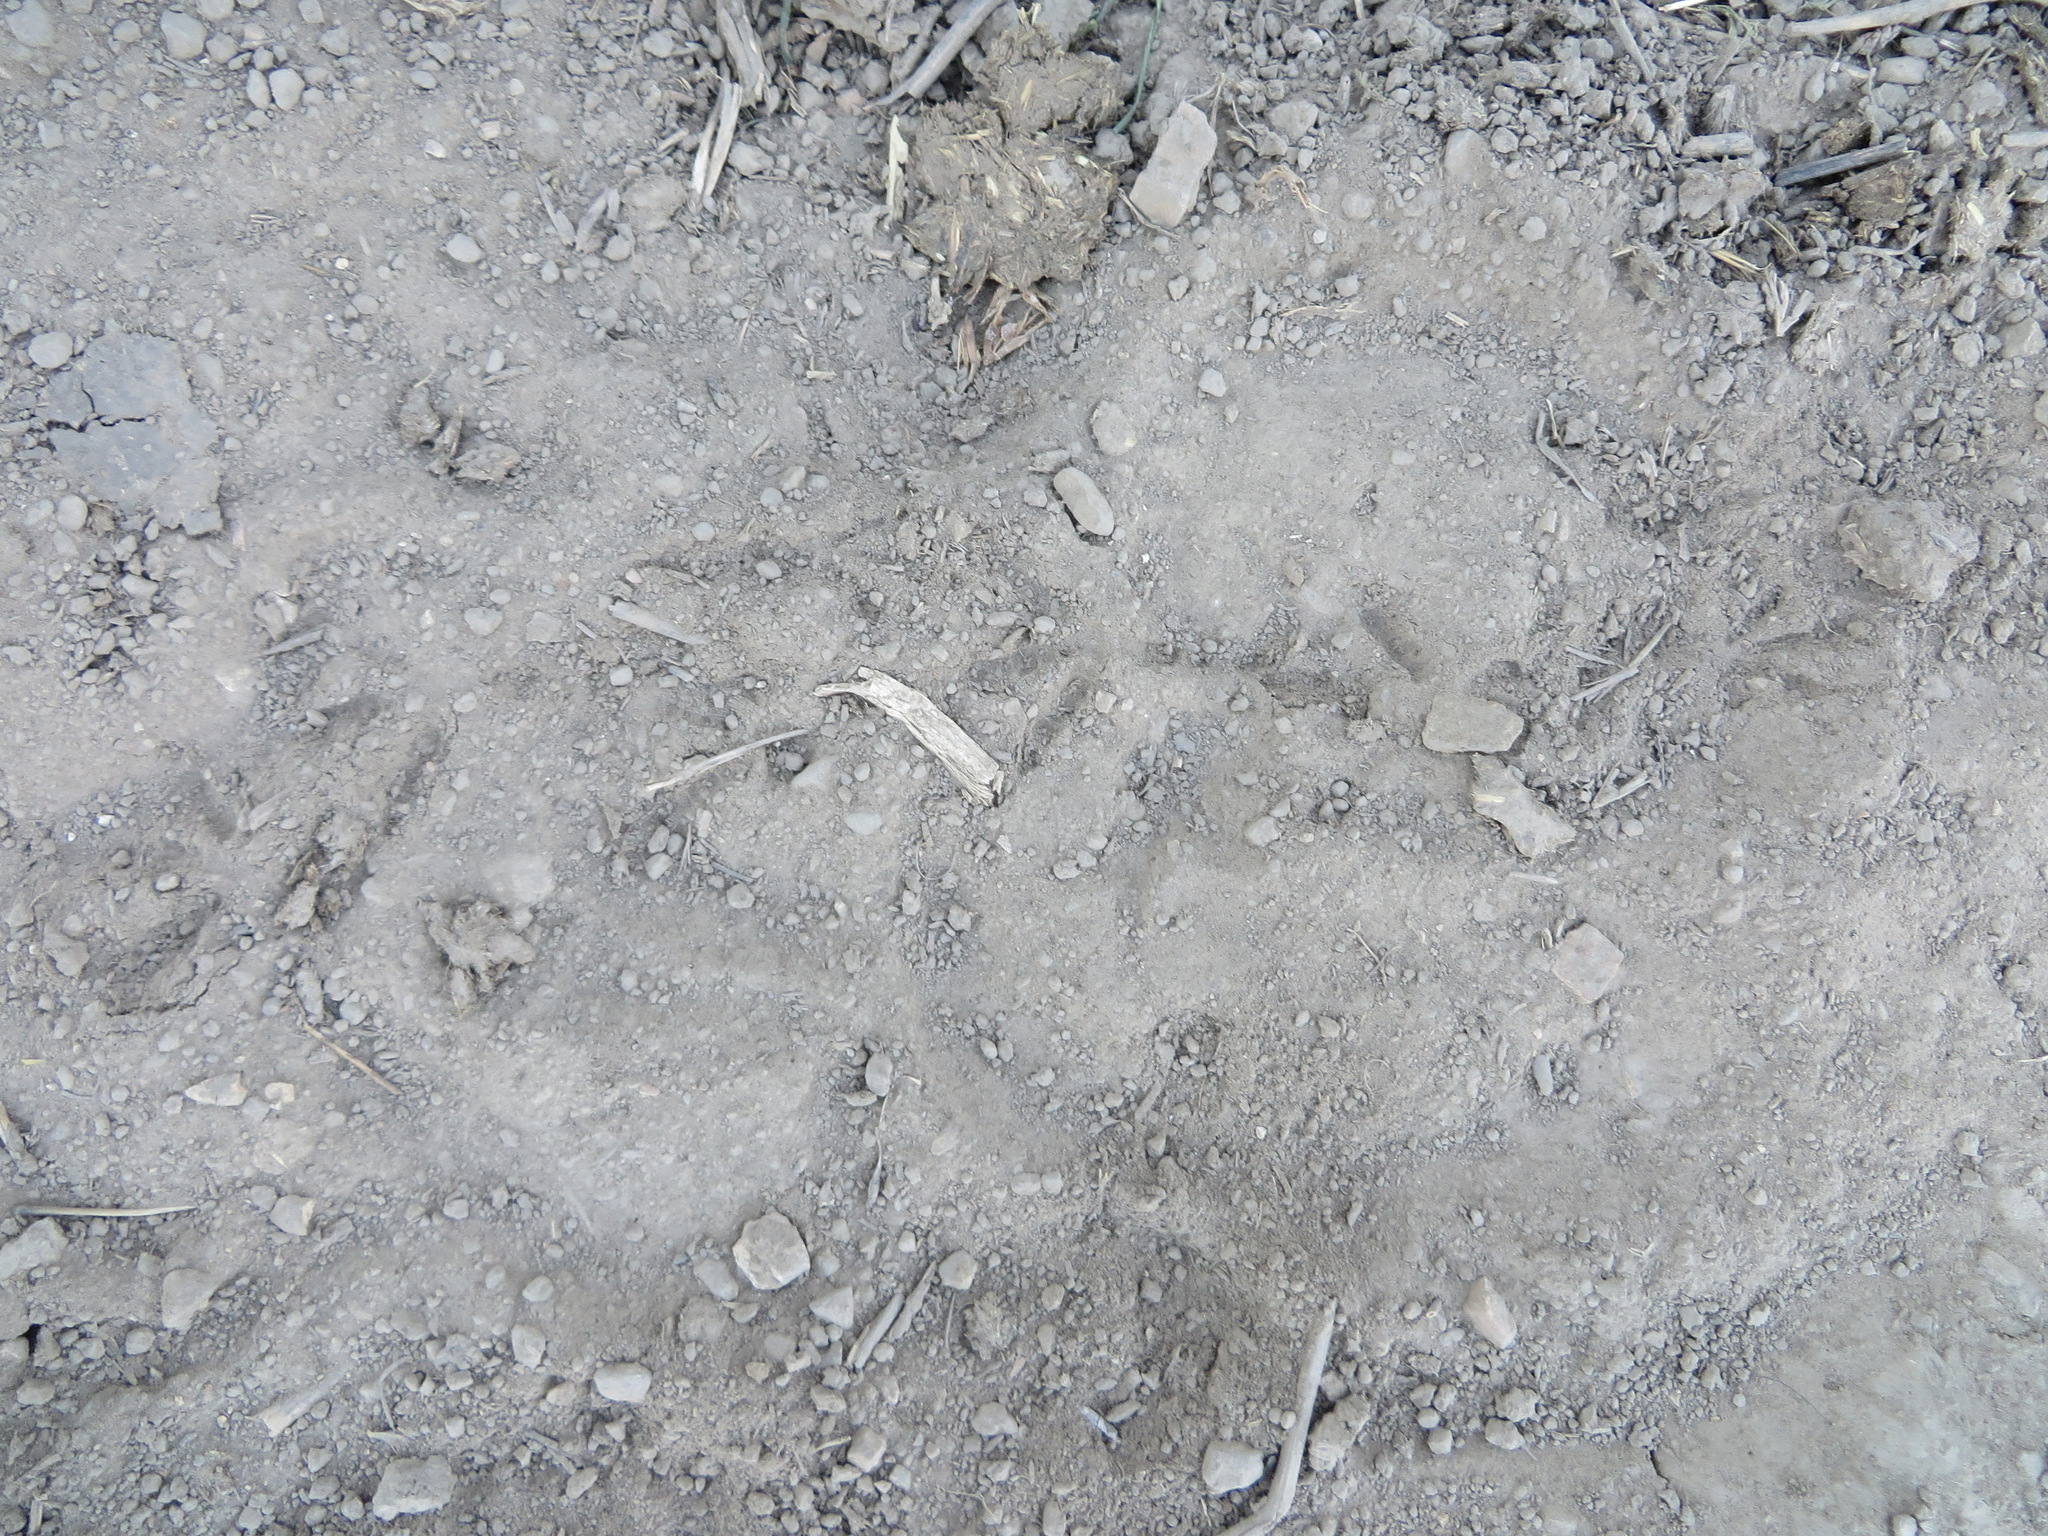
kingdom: Animalia
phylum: Chordata
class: Aves
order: Galliformes
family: Odontophoridae
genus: Callipepla
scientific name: Callipepla californica
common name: California quail
